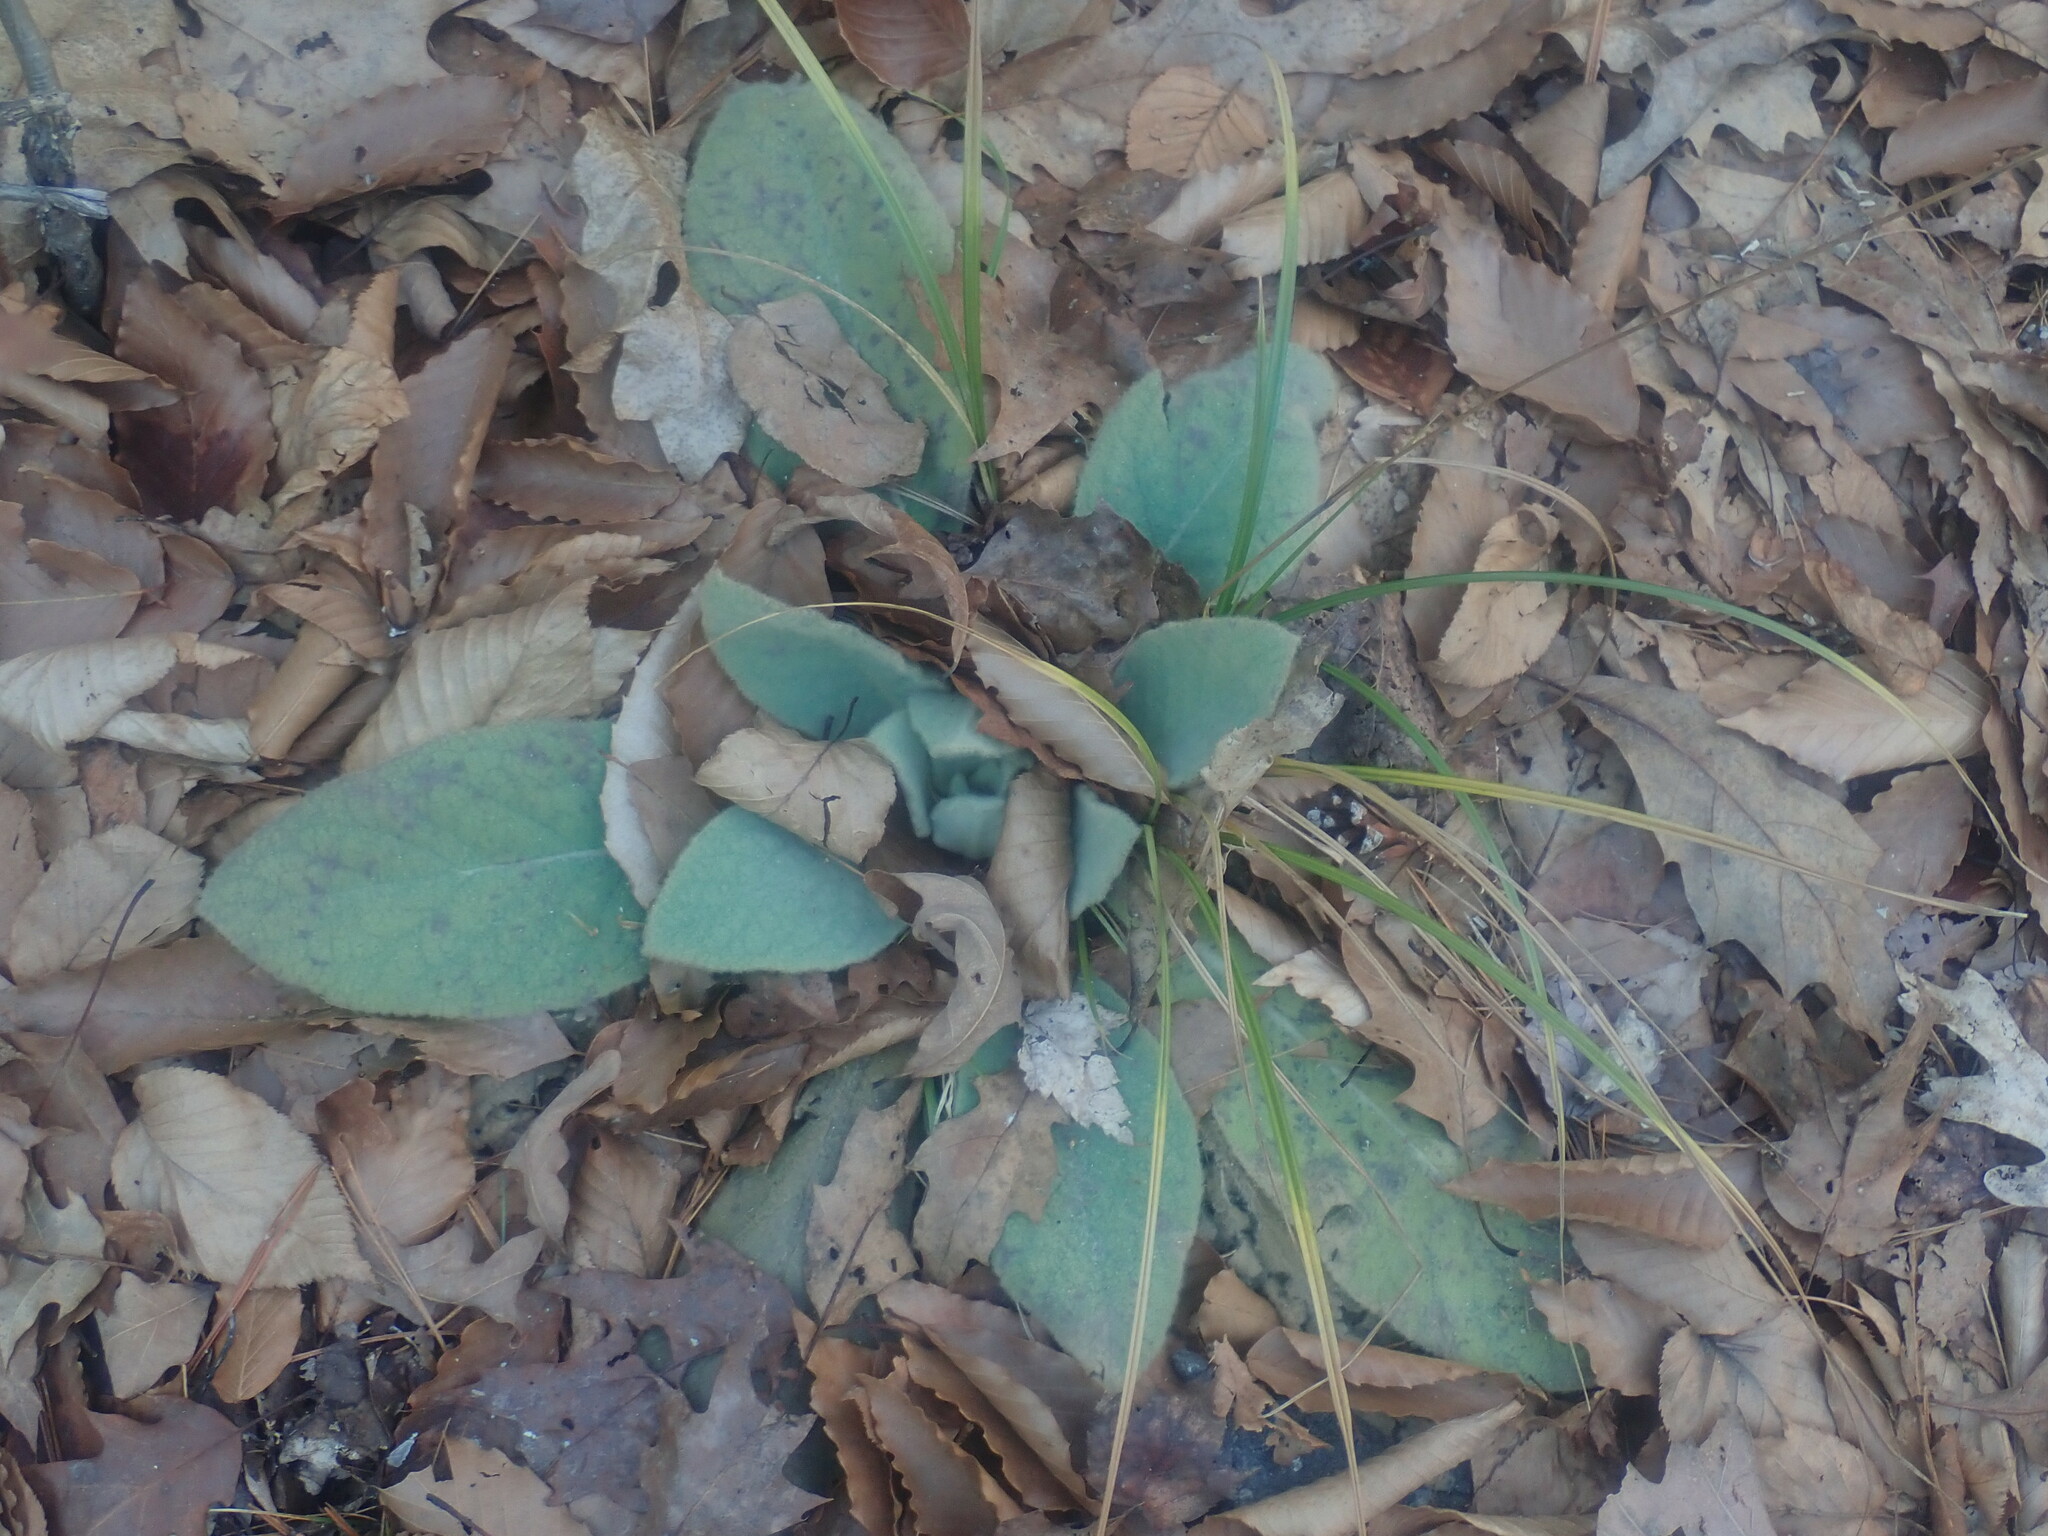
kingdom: Plantae
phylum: Tracheophyta
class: Magnoliopsida
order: Lamiales
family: Scrophulariaceae
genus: Verbascum
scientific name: Verbascum thapsus
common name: Common mullein
